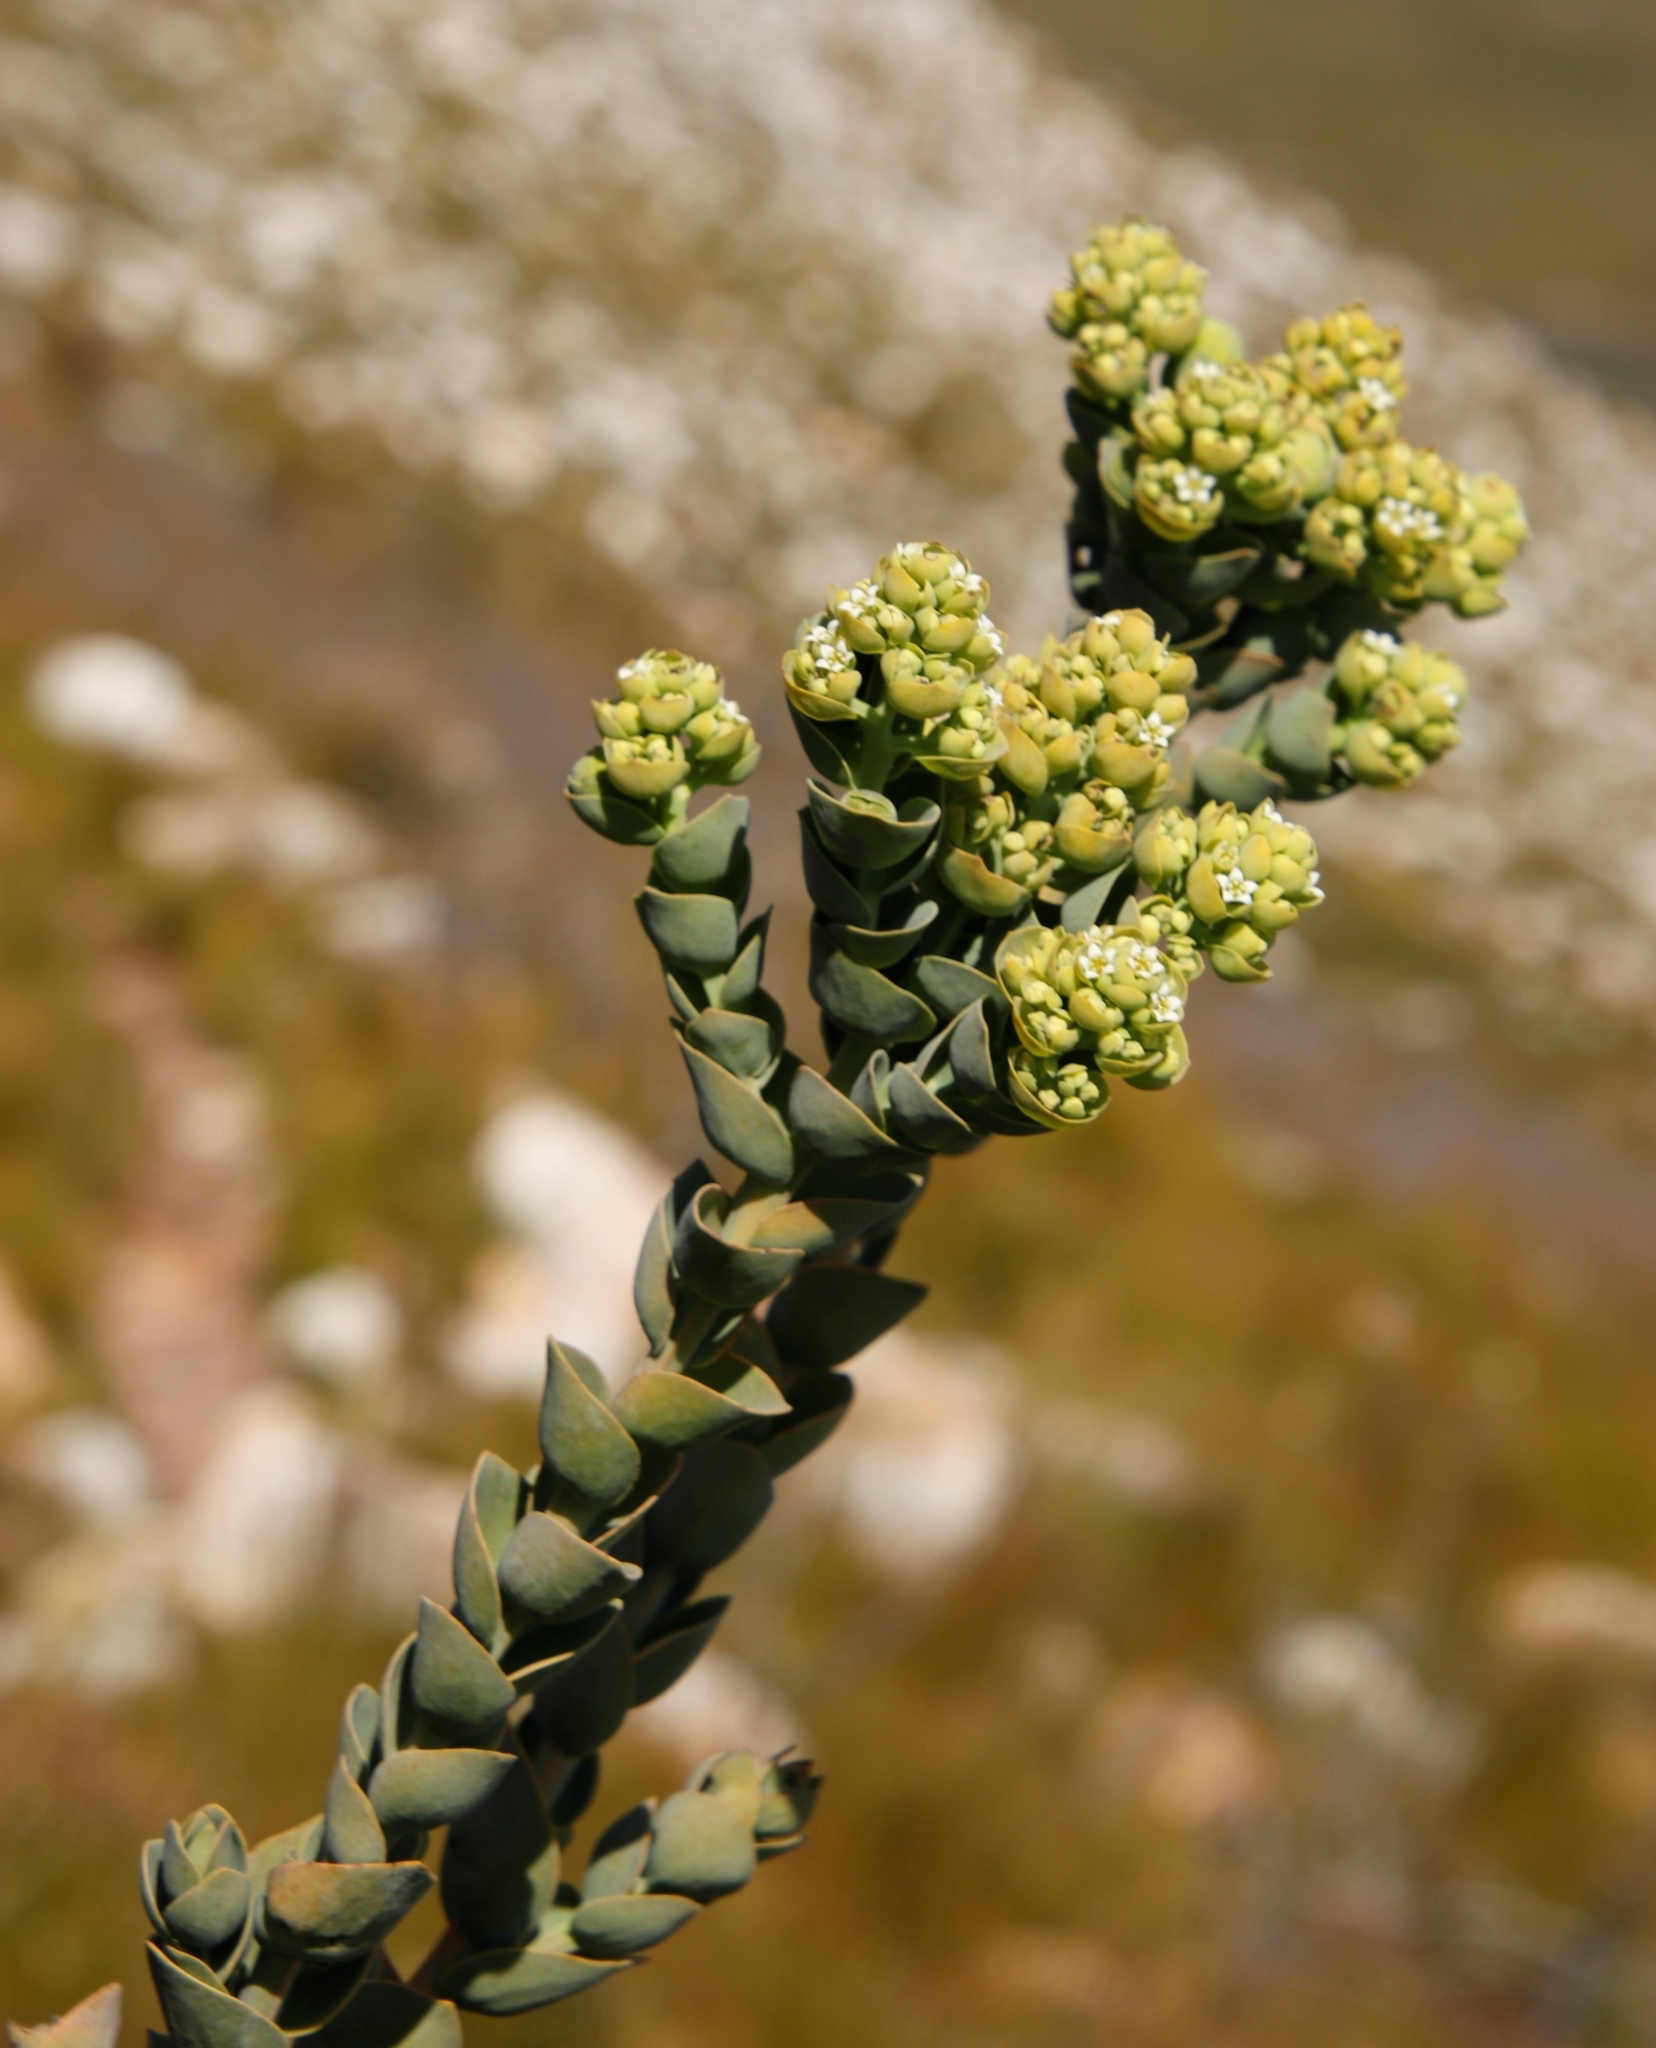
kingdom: Plantae
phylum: Tracheophyta
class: Magnoliopsida
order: Santalales
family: Thesiaceae
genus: Thesium
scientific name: Thesium euphorbioides
